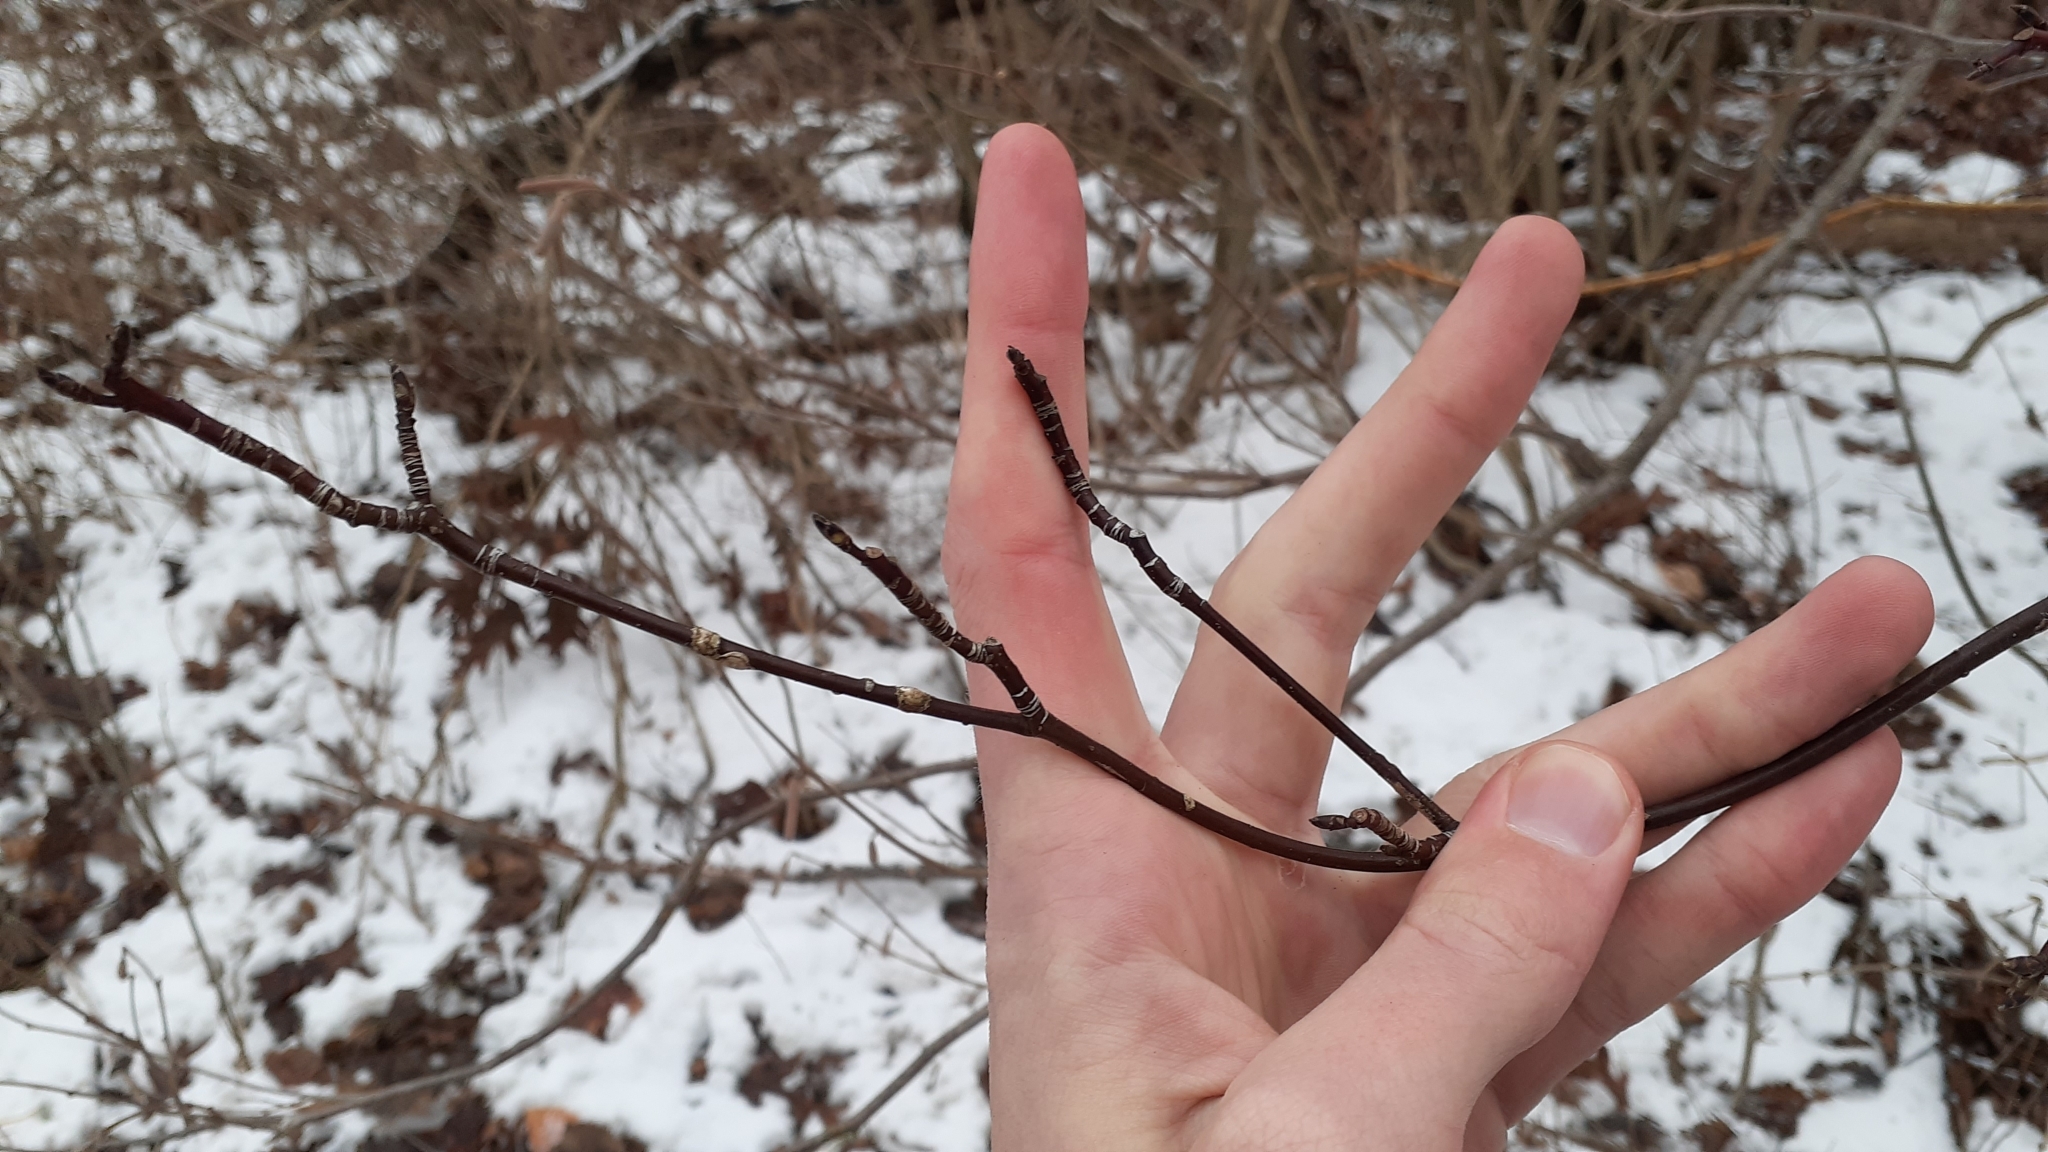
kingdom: Plantae
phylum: Tracheophyta
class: Magnoliopsida
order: Cornales
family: Cornaceae
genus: Cornus
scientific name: Cornus alternifolia
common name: Pagoda dogwood
